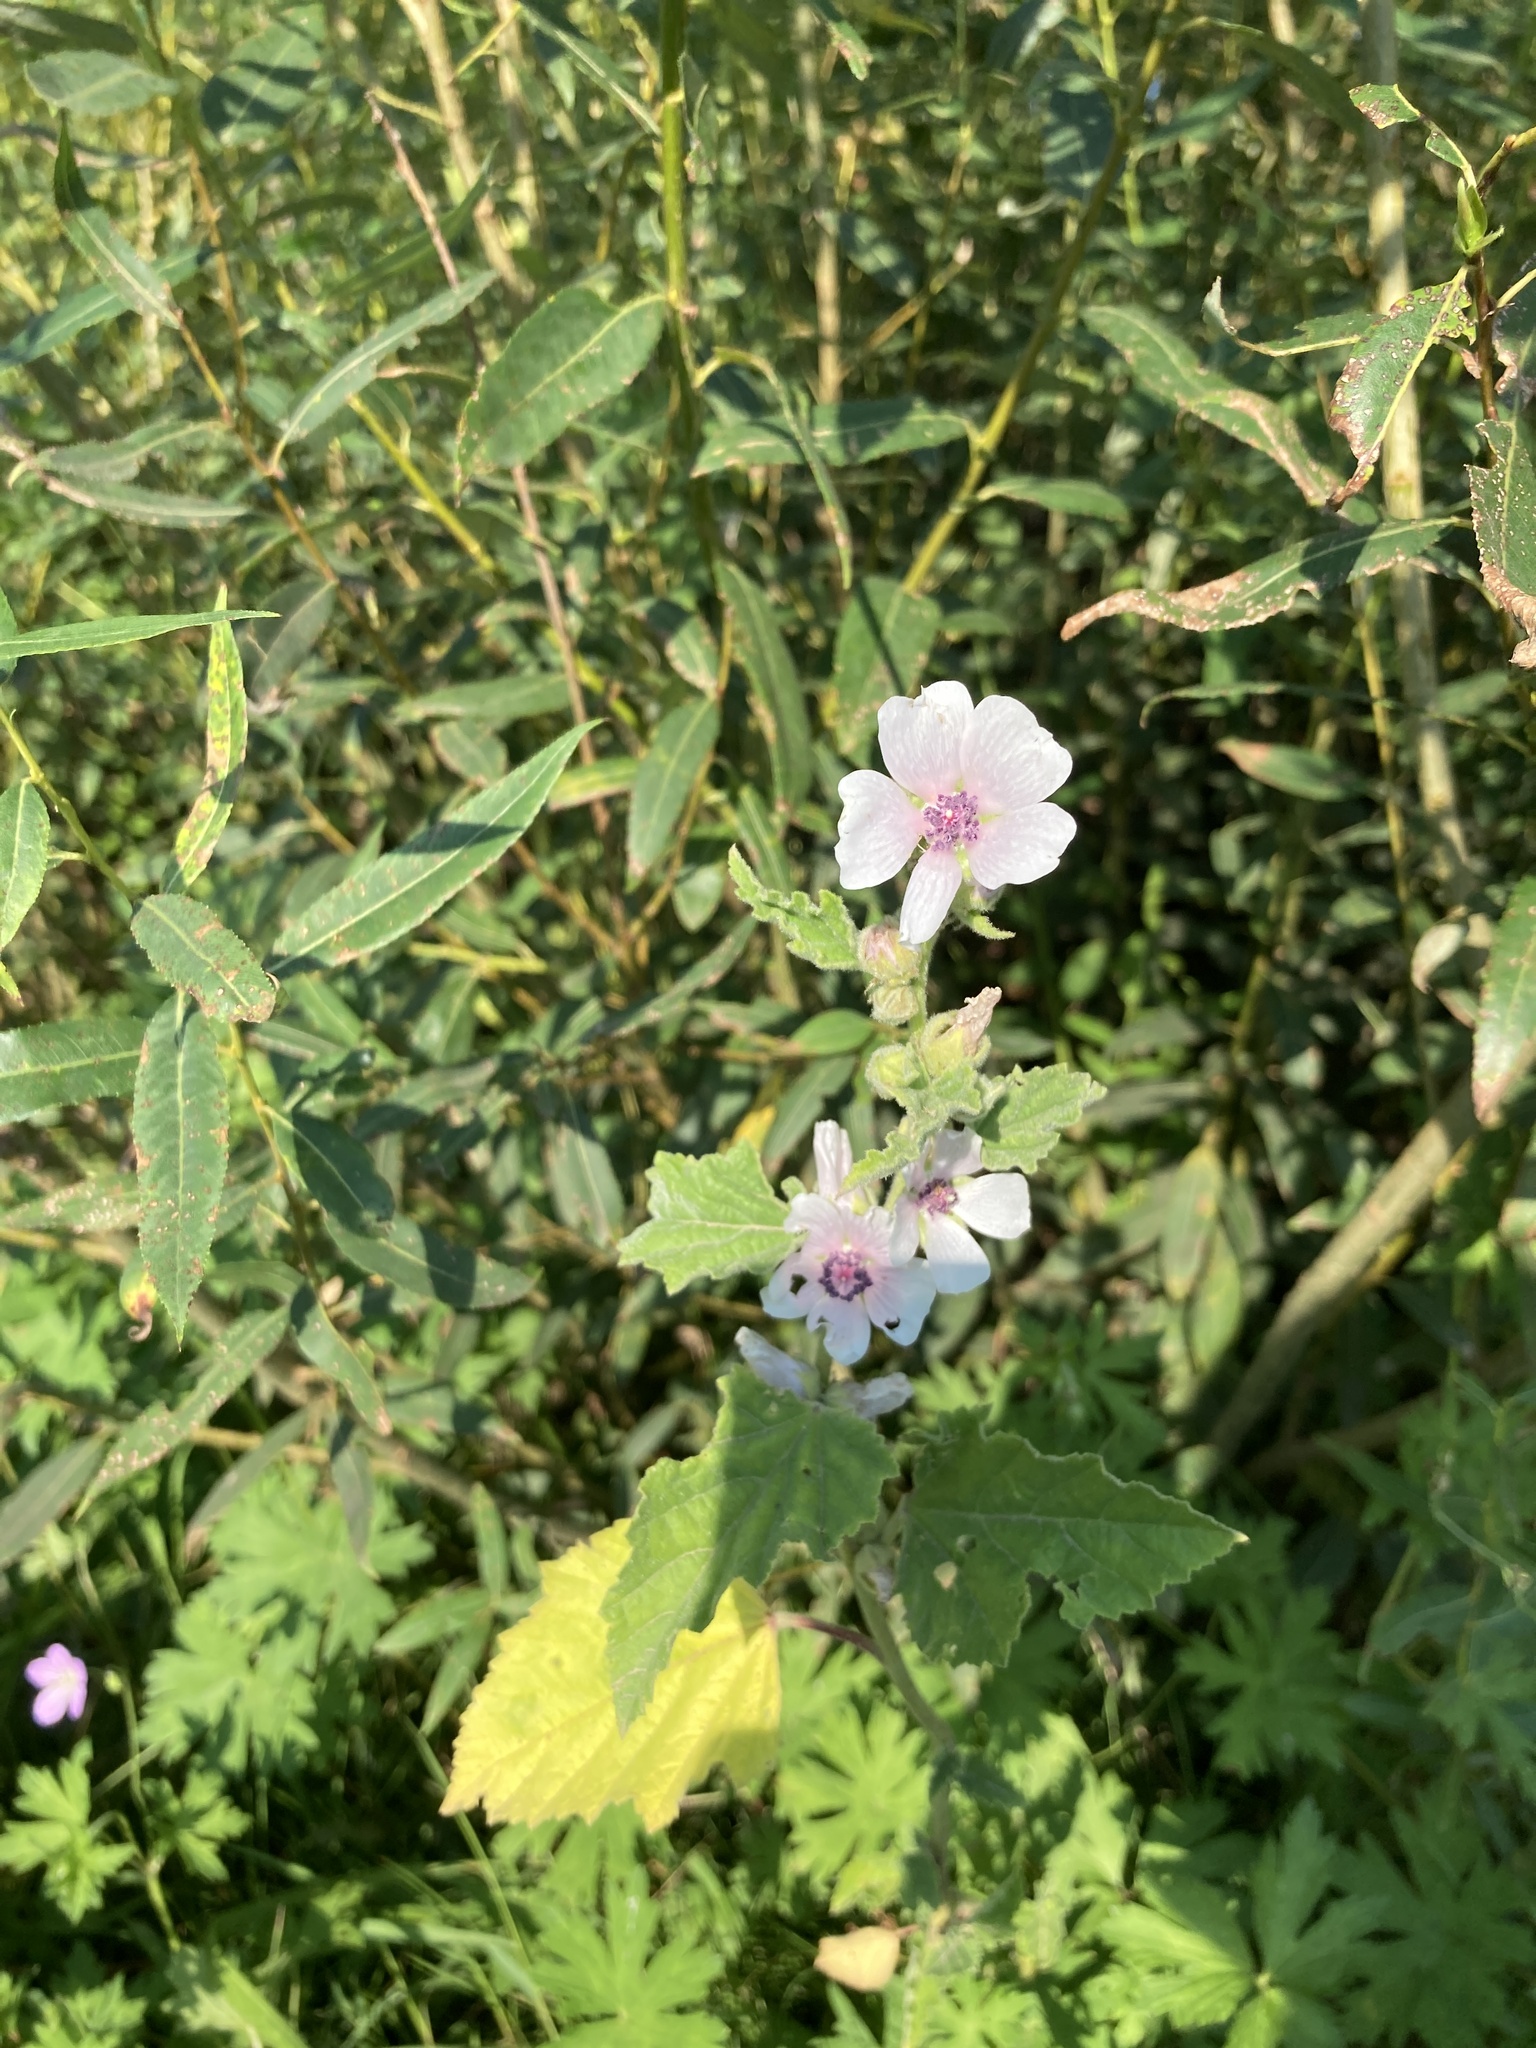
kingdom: Plantae
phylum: Tracheophyta
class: Magnoliopsida
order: Malvales
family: Malvaceae
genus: Althaea
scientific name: Althaea officinalis
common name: Marsh-mallow
